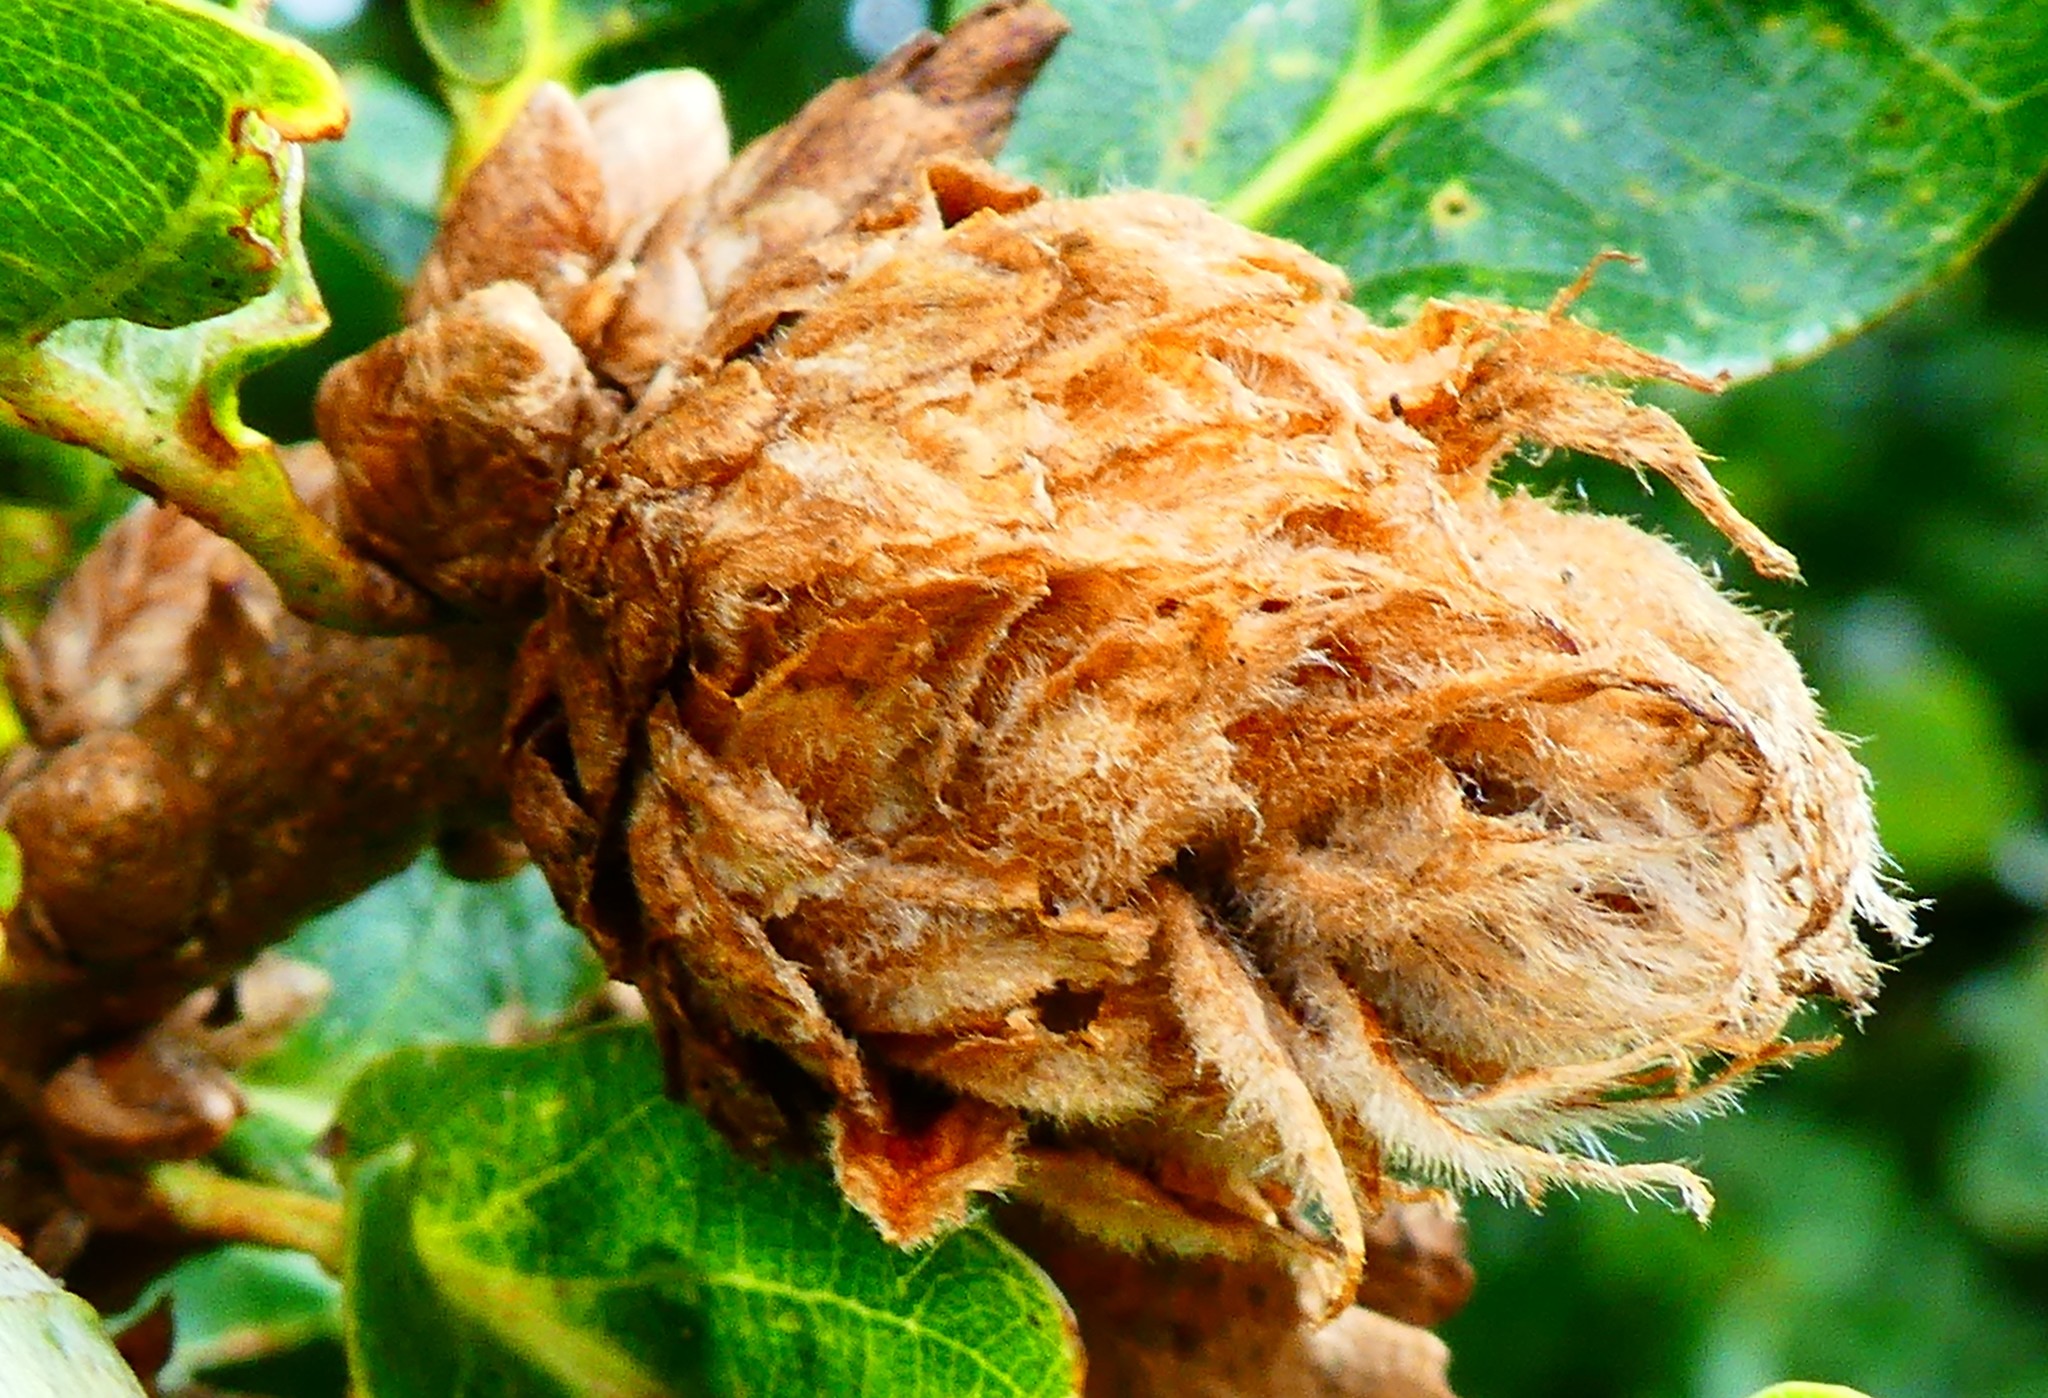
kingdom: Animalia
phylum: Arthropoda
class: Insecta
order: Hymenoptera
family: Cynipidae
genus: Andricus
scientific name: Andricus foecundatrix
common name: Artichoke gall
